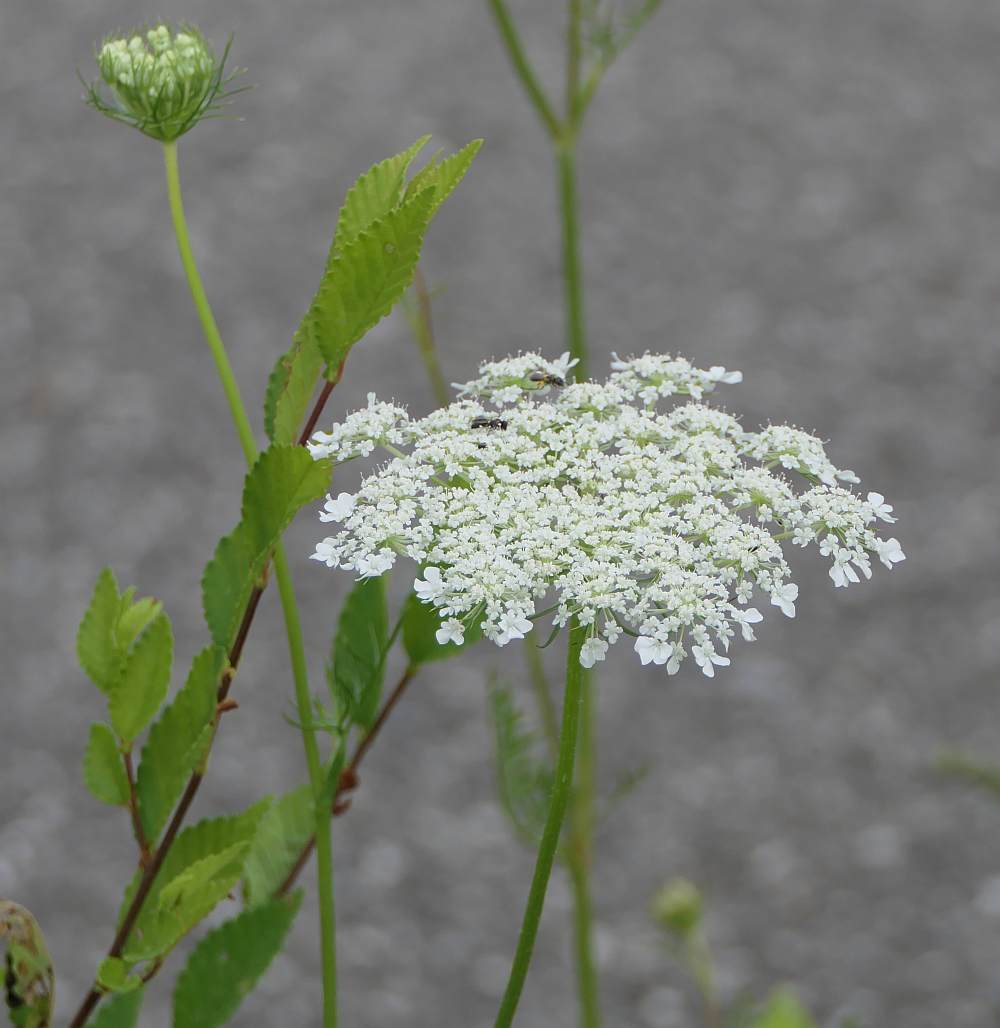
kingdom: Plantae
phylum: Tracheophyta
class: Magnoliopsida
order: Apiales
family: Apiaceae
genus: Daucus
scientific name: Daucus carota
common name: Wild carrot
